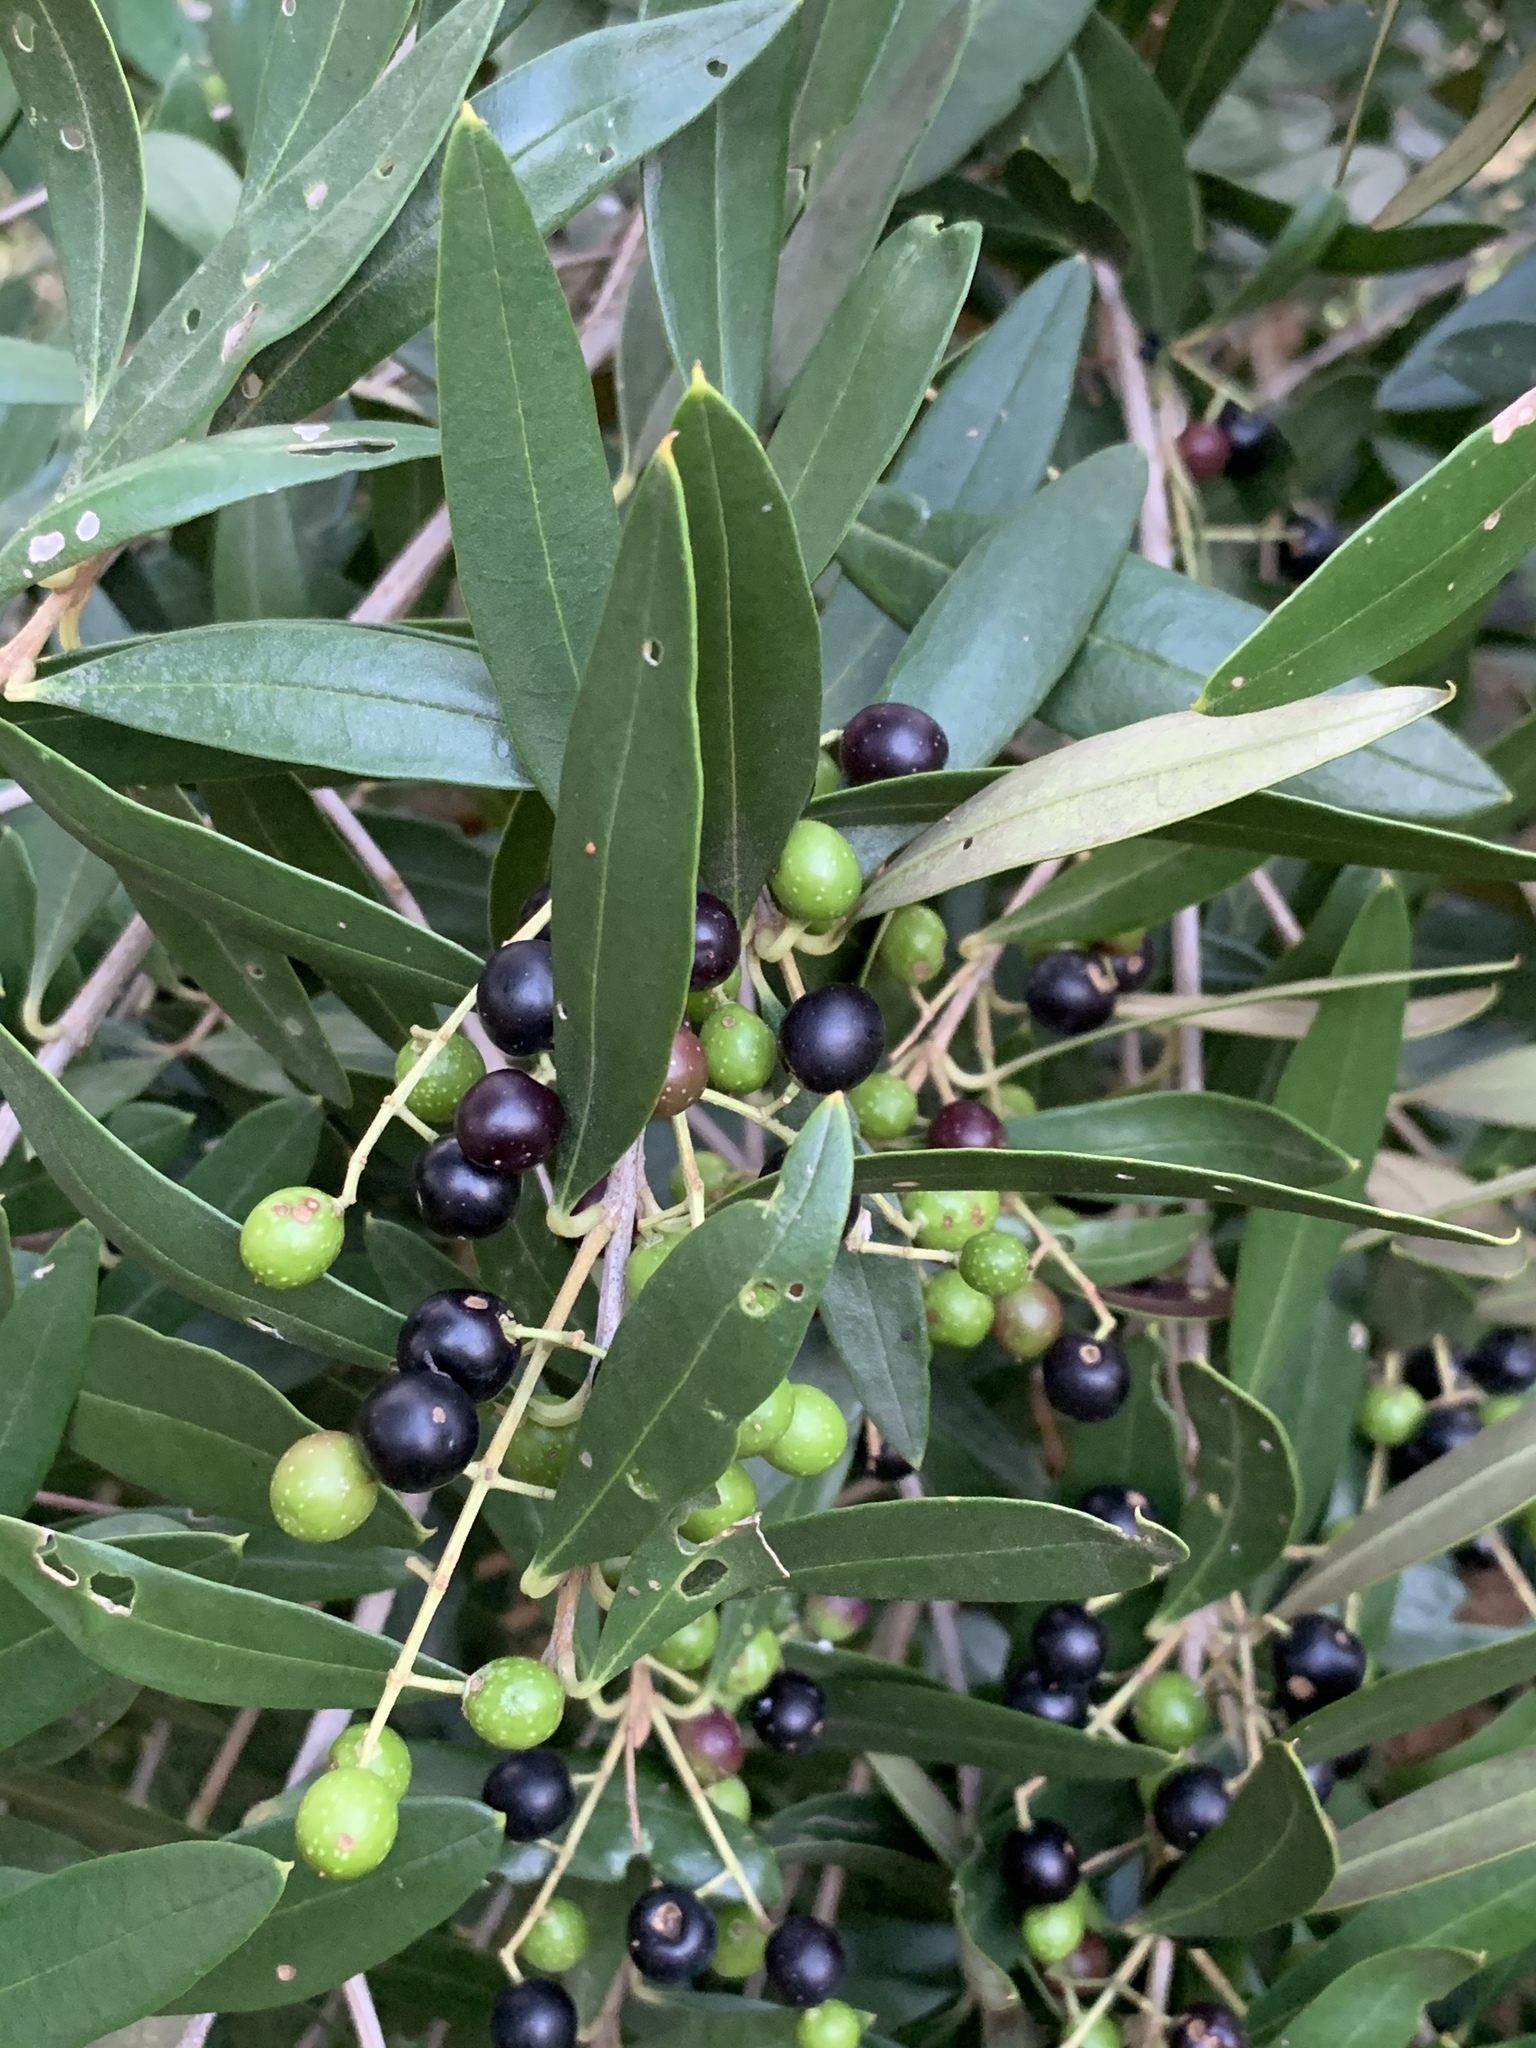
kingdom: Plantae
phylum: Tracheophyta
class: Magnoliopsida
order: Lamiales
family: Oleaceae
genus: Olea
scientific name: Olea europaea
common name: Olive
